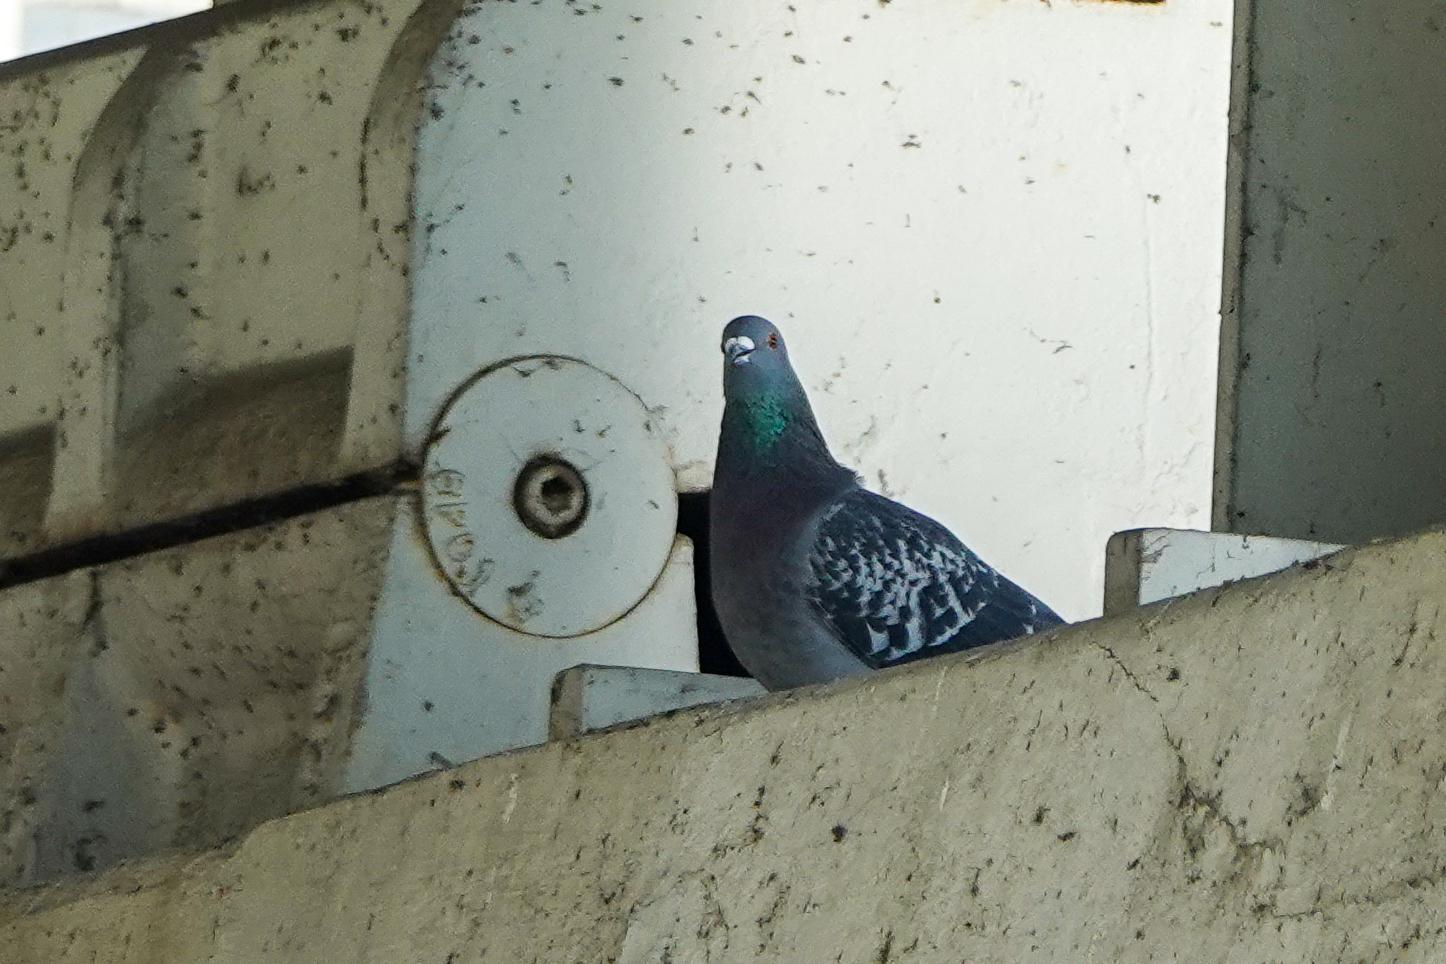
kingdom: Animalia
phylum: Chordata
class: Aves
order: Columbiformes
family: Columbidae
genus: Columba
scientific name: Columba livia
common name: Rock pigeon
